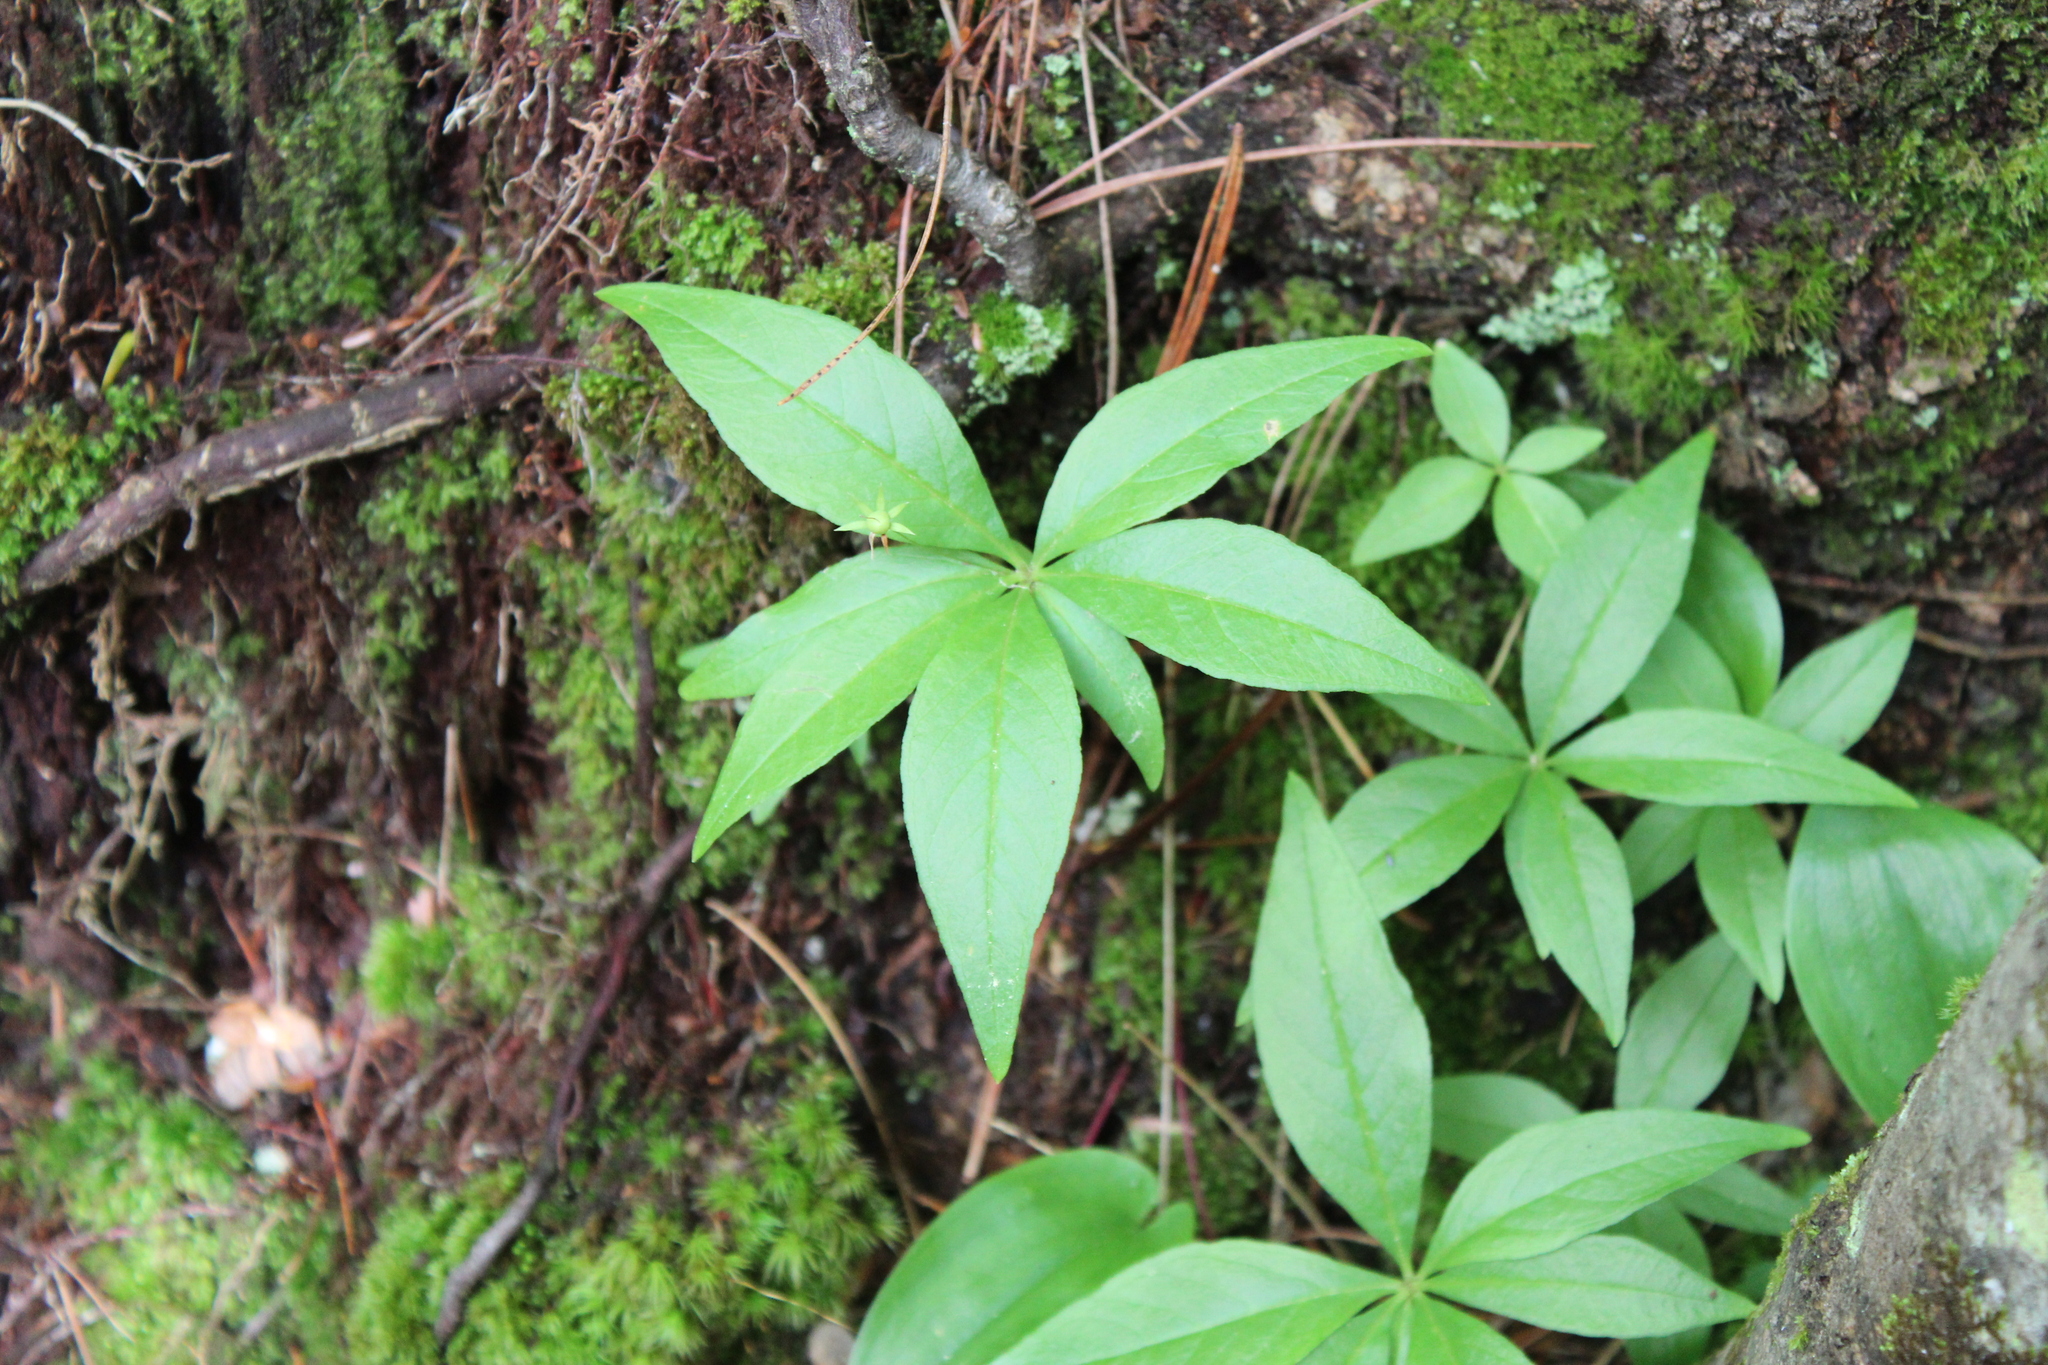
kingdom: Plantae
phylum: Tracheophyta
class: Magnoliopsida
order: Ericales
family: Primulaceae
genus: Lysimachia
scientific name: Lysimachia borealis
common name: American starflower
